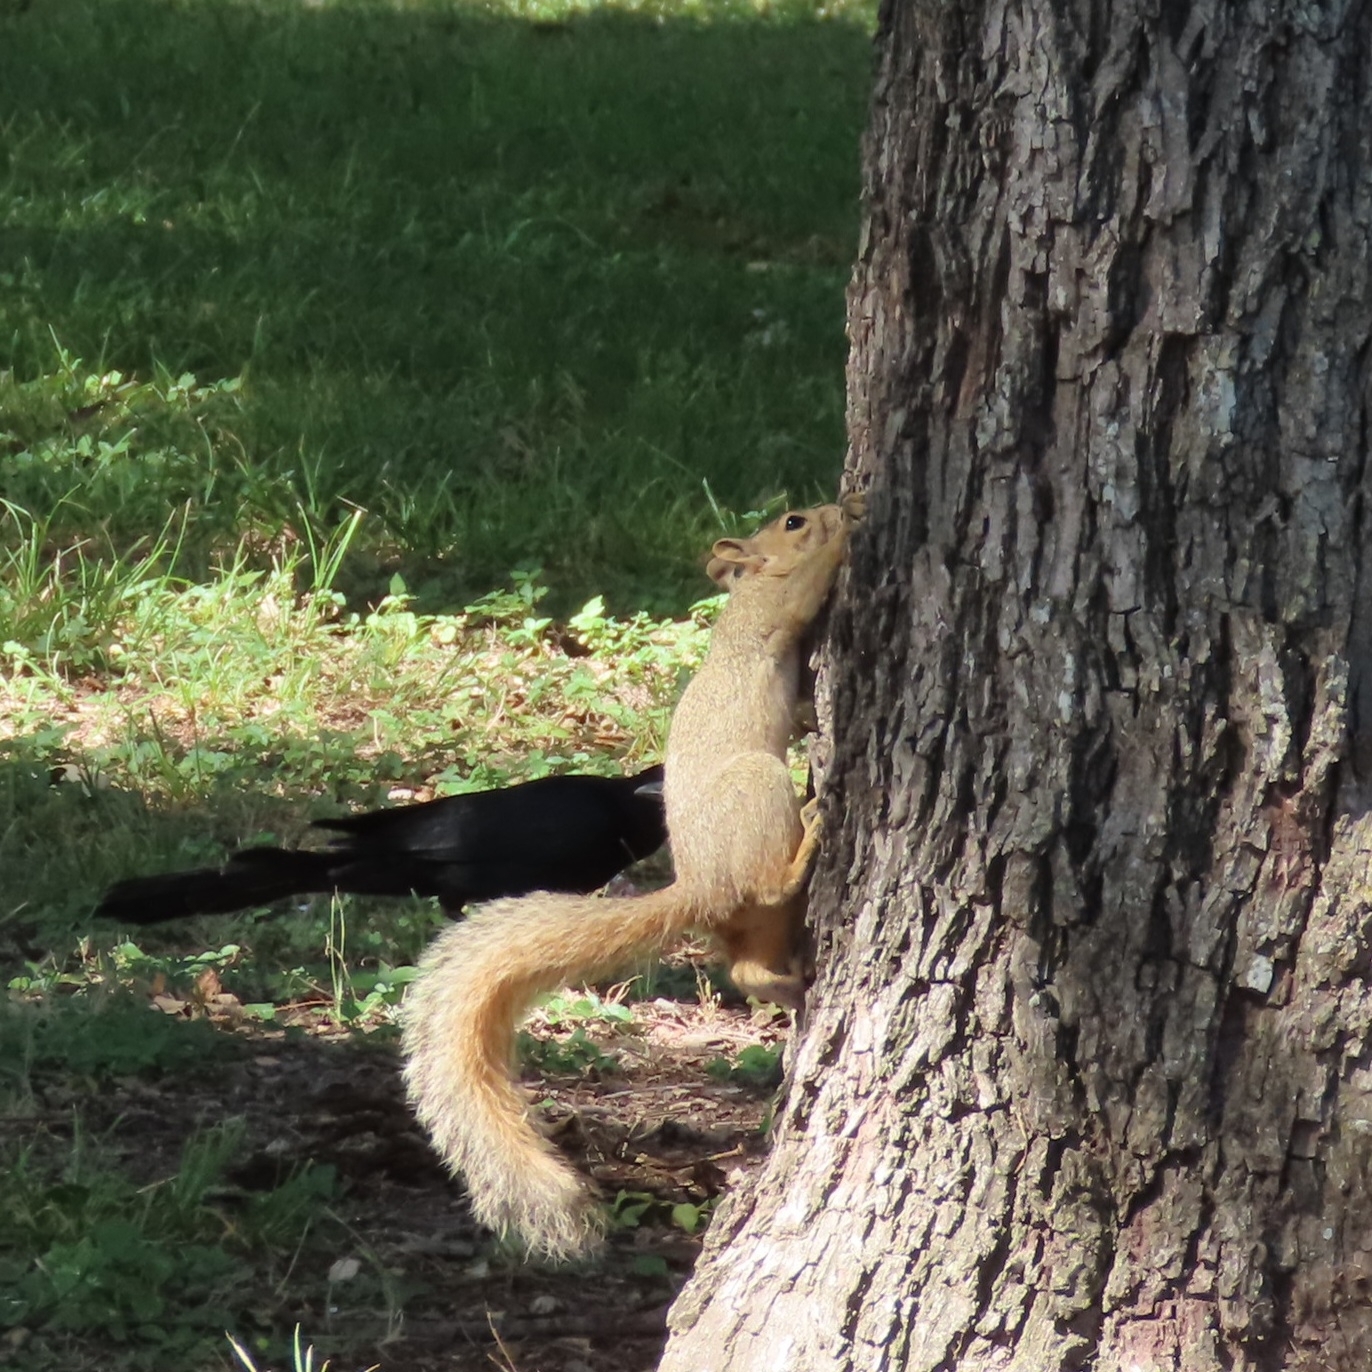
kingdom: Animalia
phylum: Chordata
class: Mammalia
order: Rodentia
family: Sciuridae
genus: Sciurus
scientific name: Sciurus niger
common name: Fox squirrel
